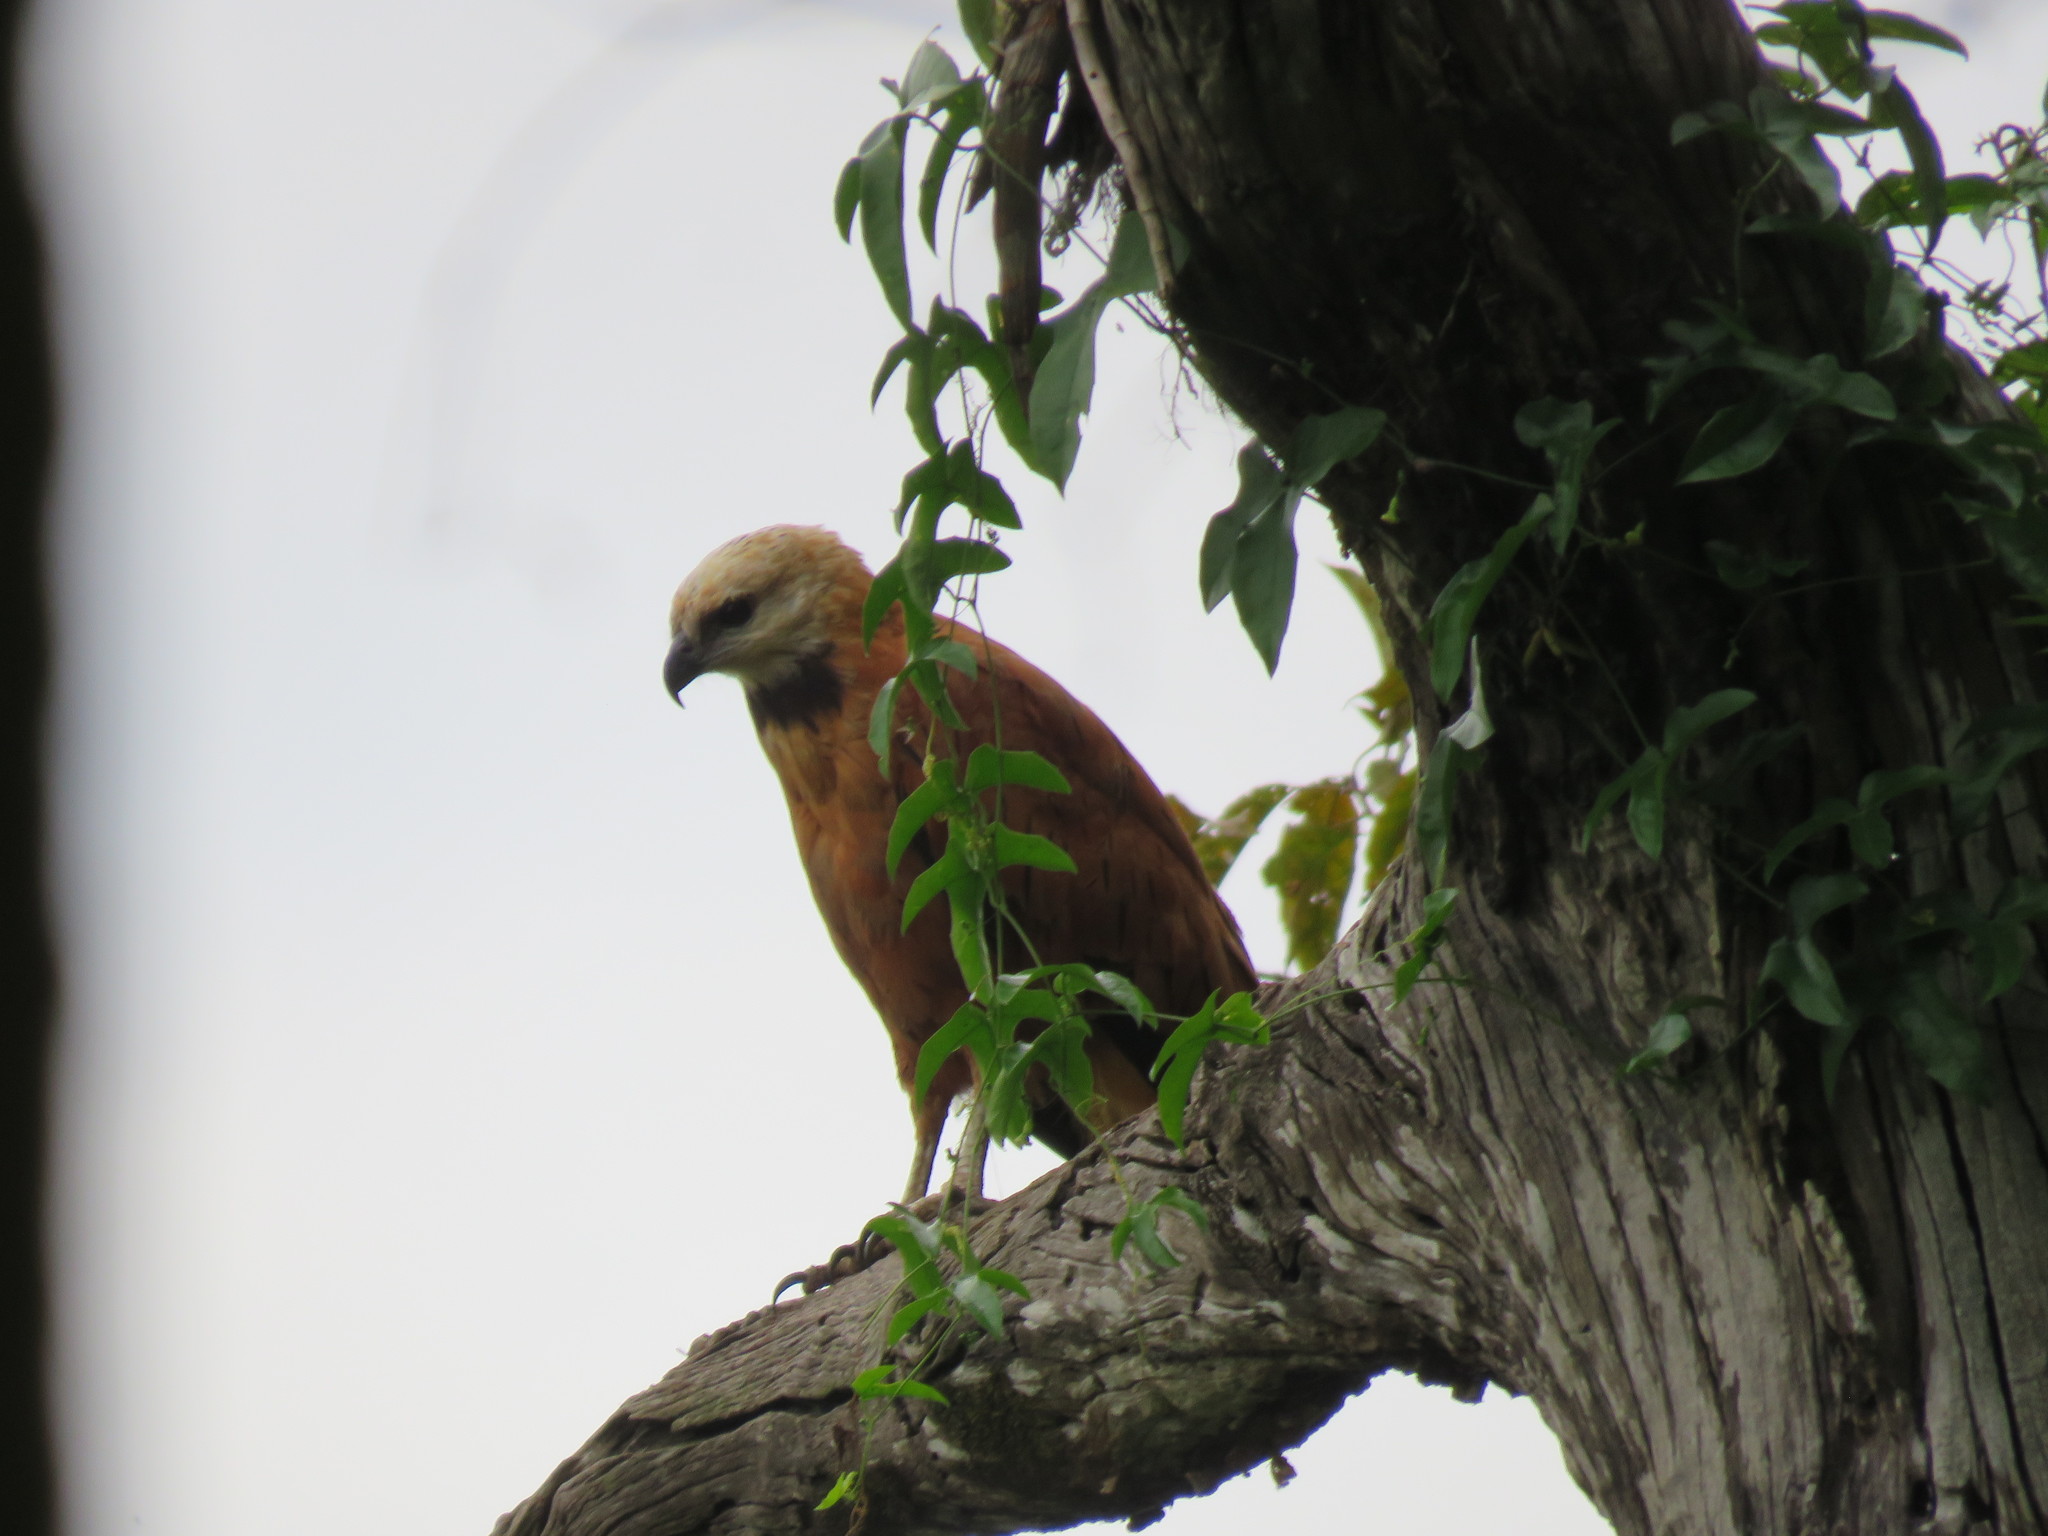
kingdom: Animalia
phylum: Chordata
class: Aves
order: Accipitriformes
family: Accipitridae
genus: Busarellus
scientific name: Busarellus nigricollis
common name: Black-collared hawk
